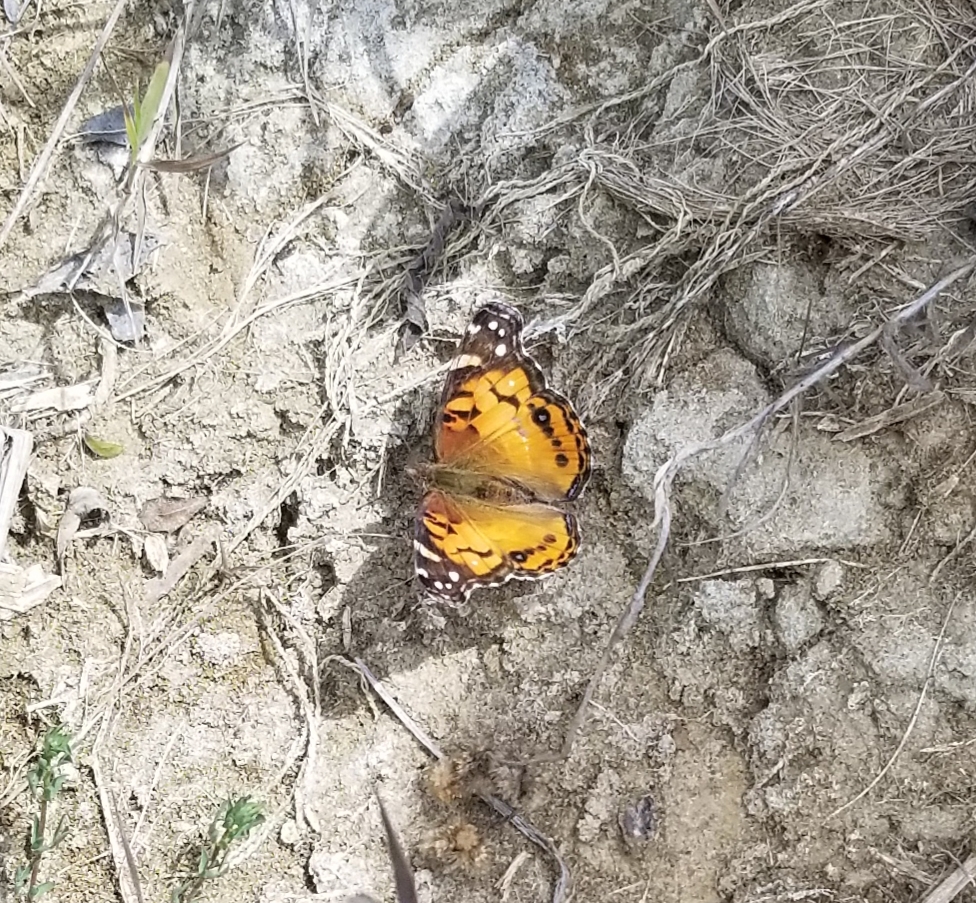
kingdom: Animalia
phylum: Arthropoda
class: Insecta
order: Lepidoptera
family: Nymphalidae
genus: Vanessa
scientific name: Vanessa virginiensis
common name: American lady
